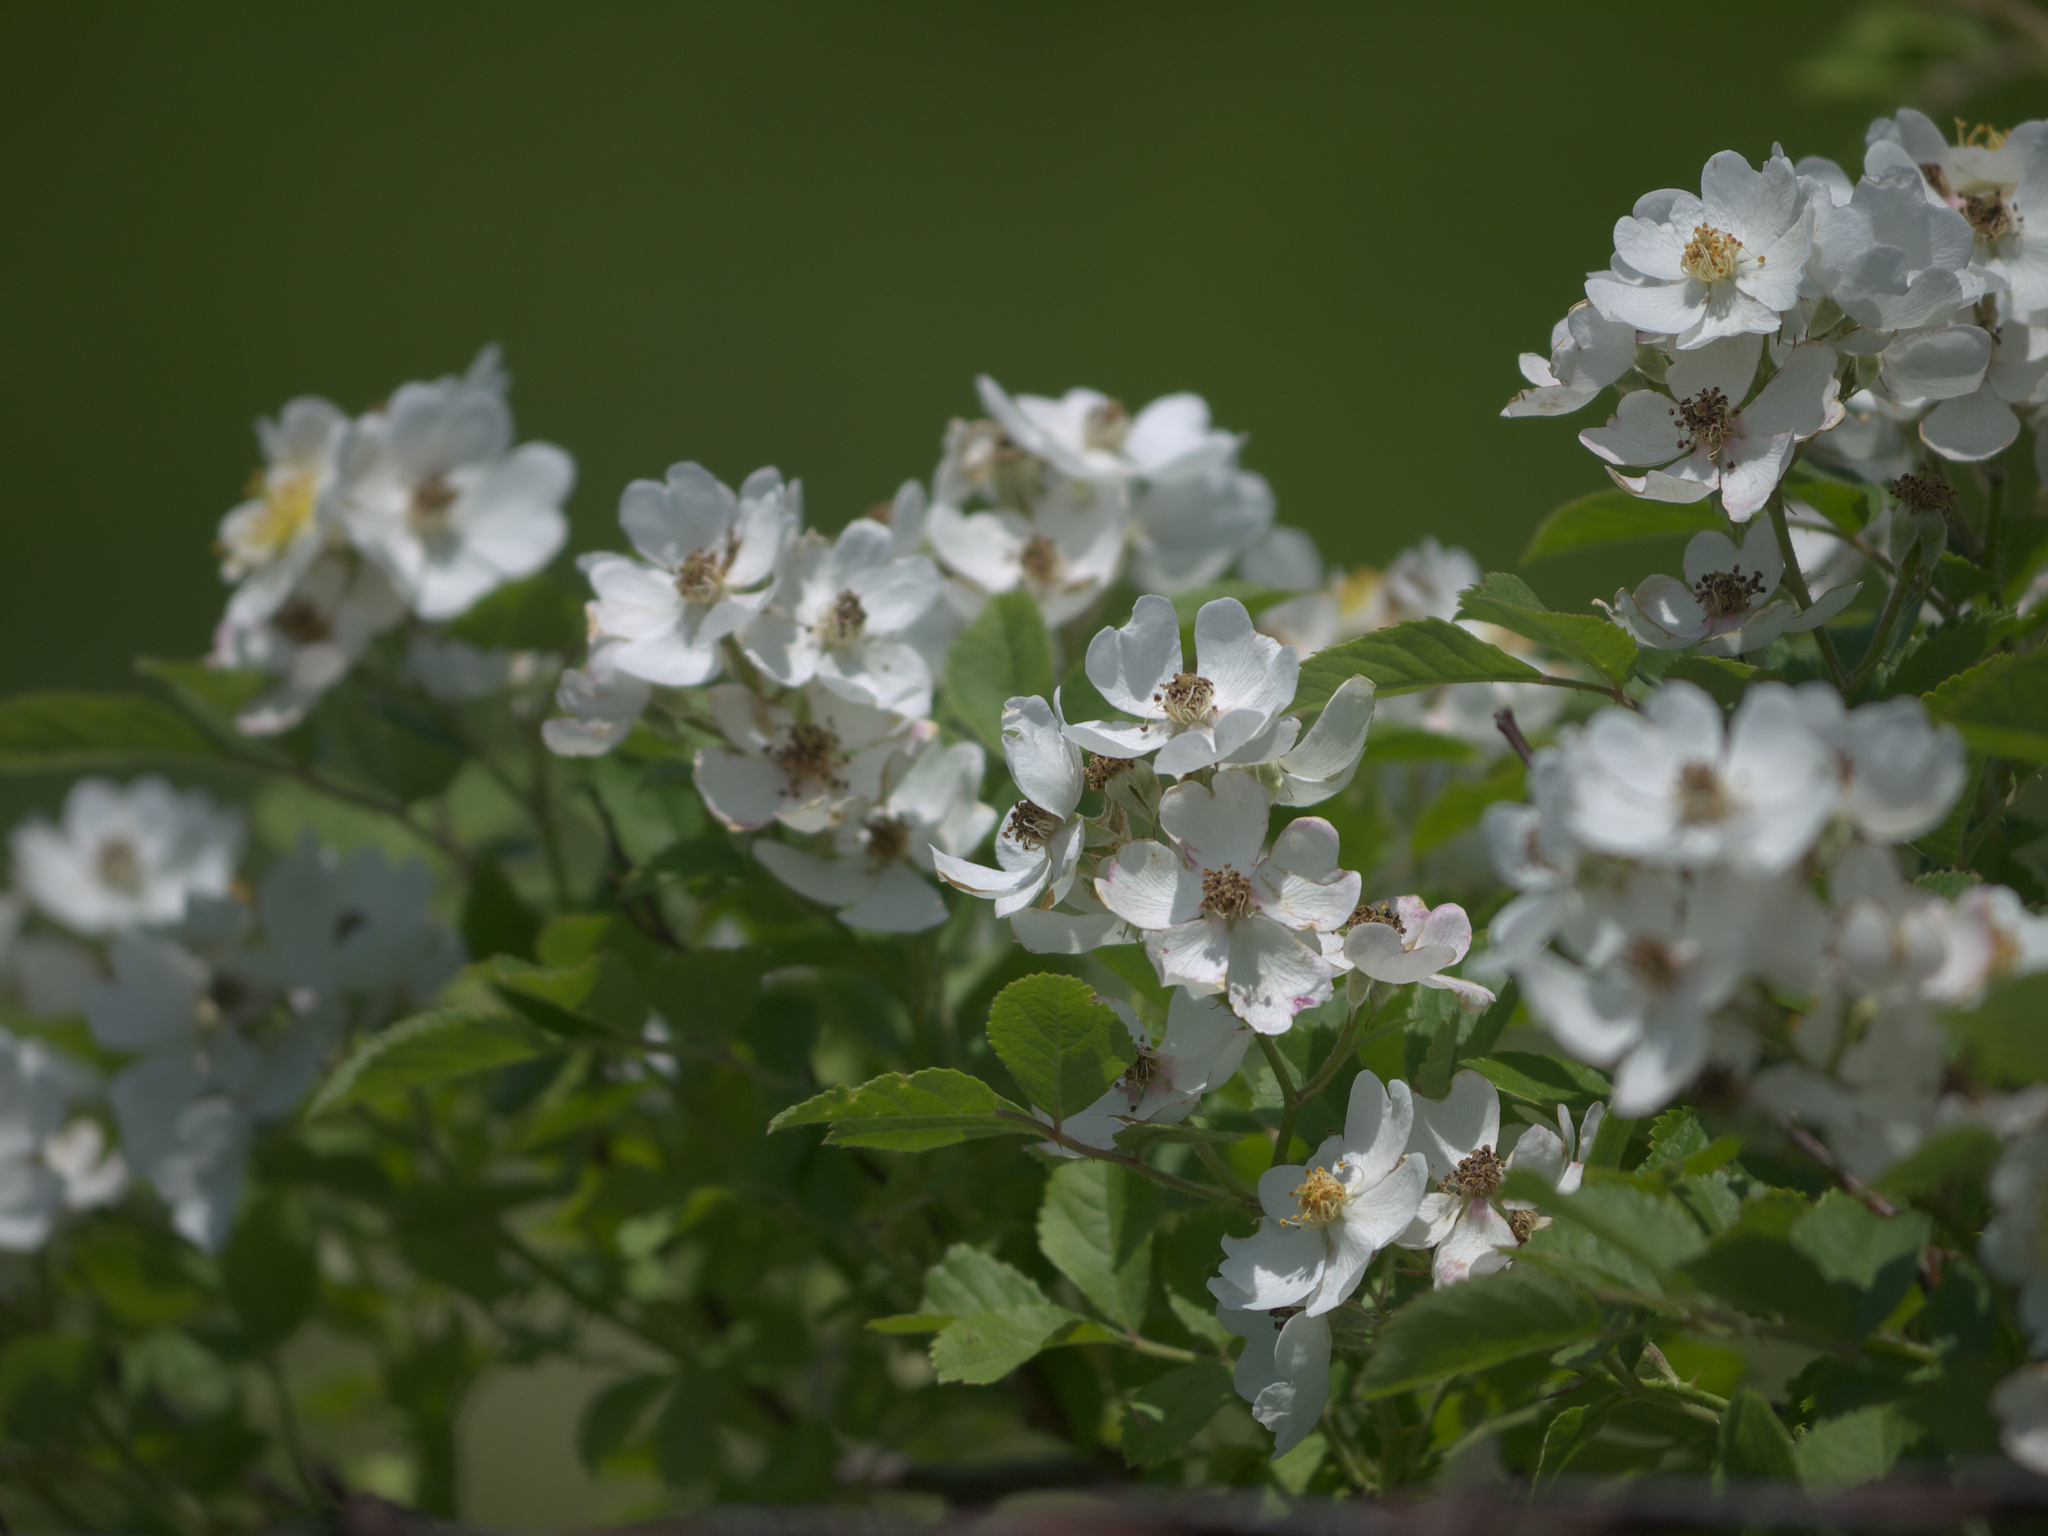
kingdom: Plantae
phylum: Tracheophyta
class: Magnoliopsida
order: Rosales
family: Rosaceae
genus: Rosa
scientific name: Rosa multiflora
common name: Multiflora rose
